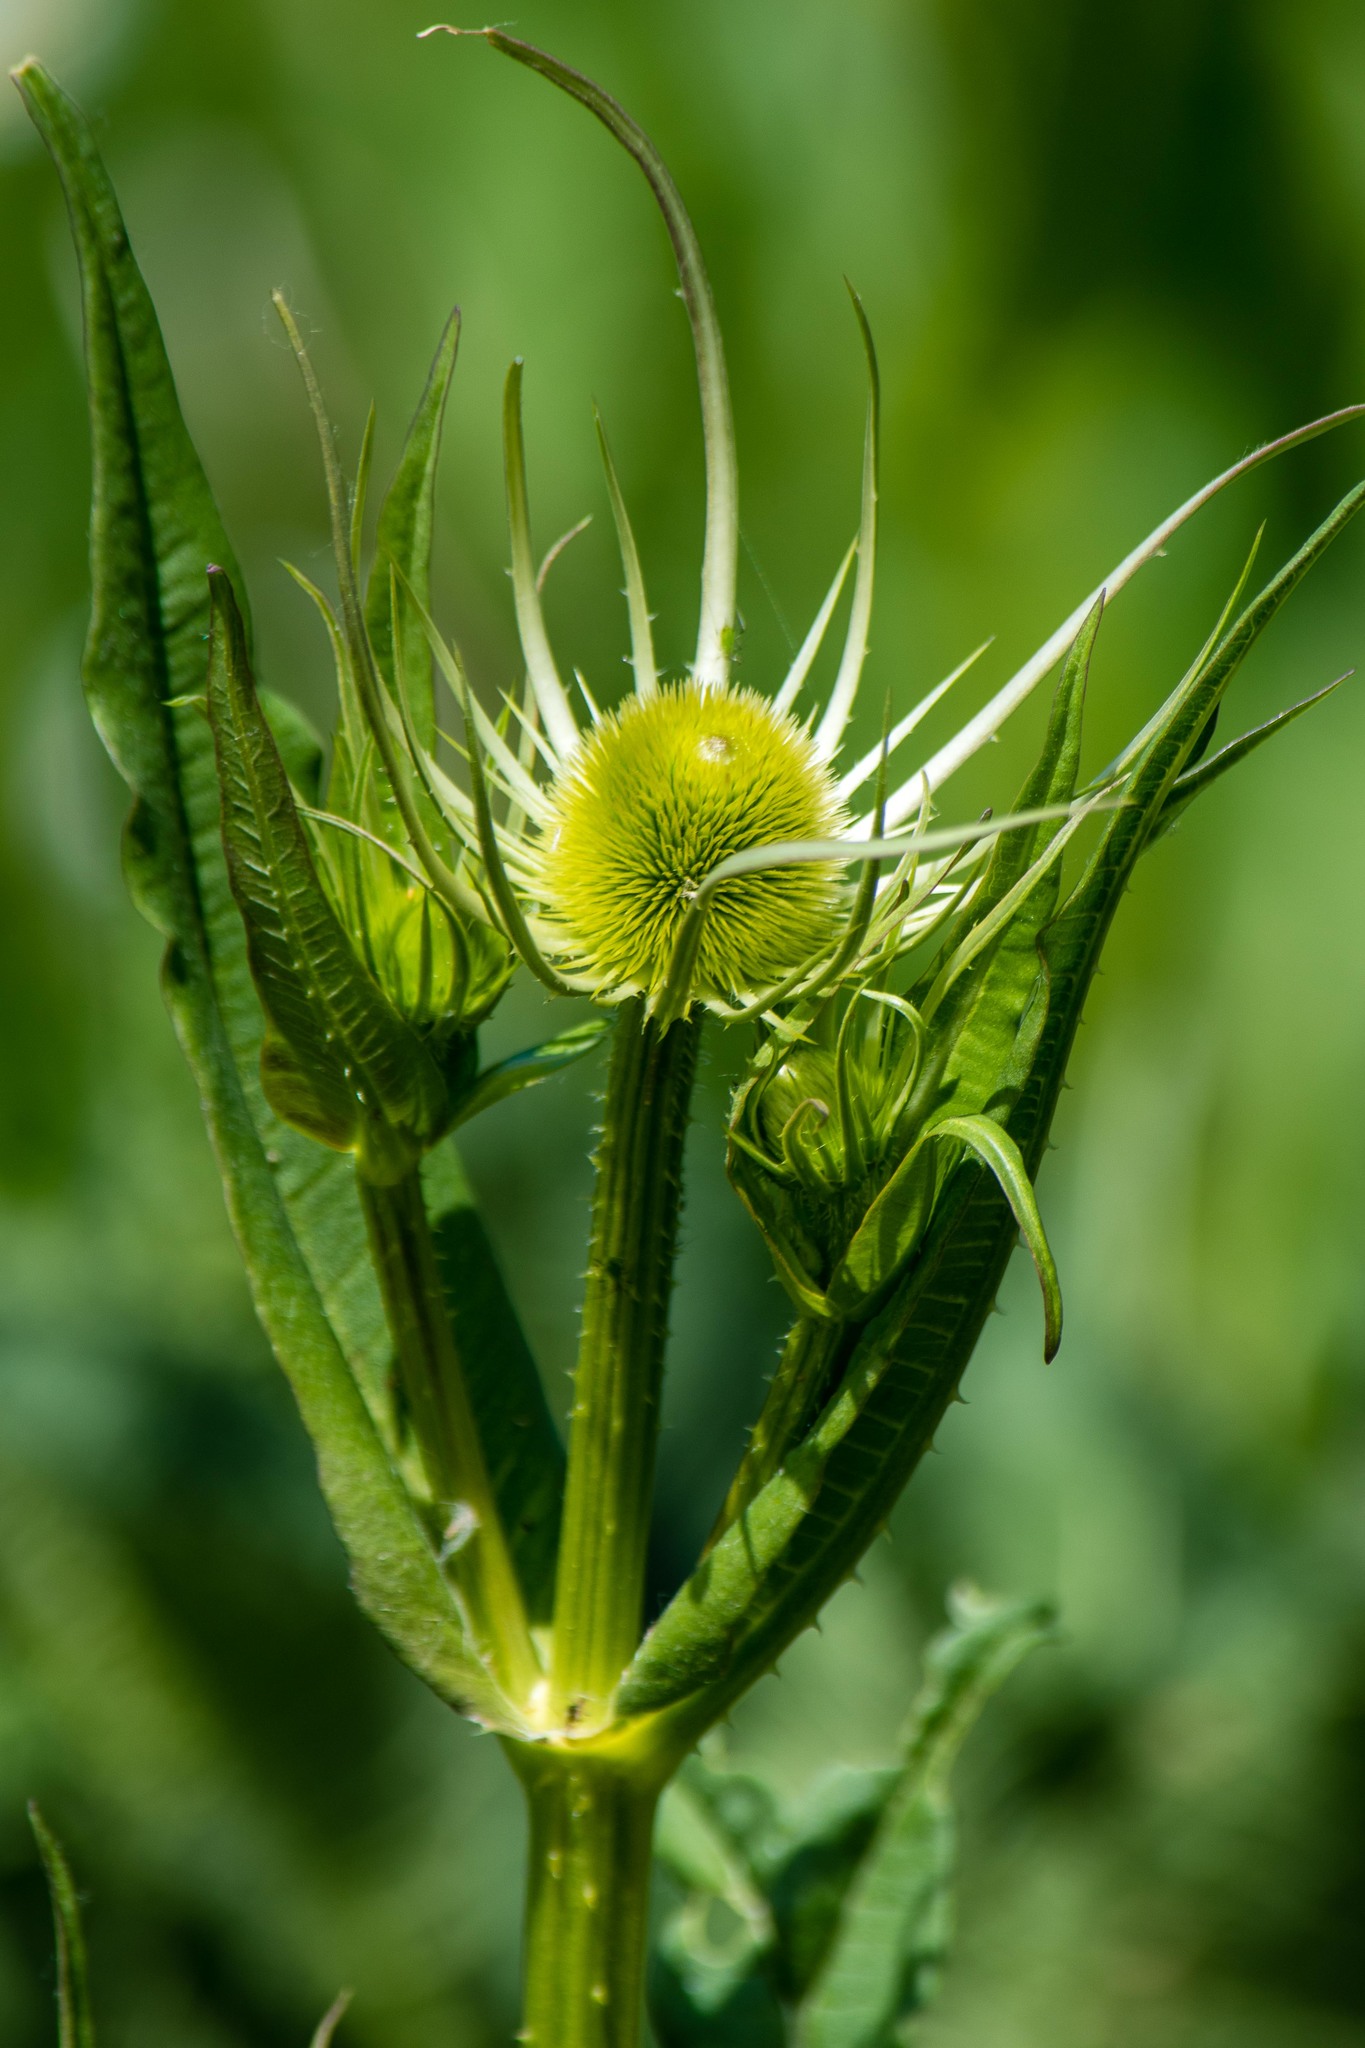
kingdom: Plantae
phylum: Tracheophyta
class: Magnoliopsida
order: Dipsacales
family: Caprifoliaceae
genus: Dipsacus
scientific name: Dipsacus fullonum
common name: Teasel
